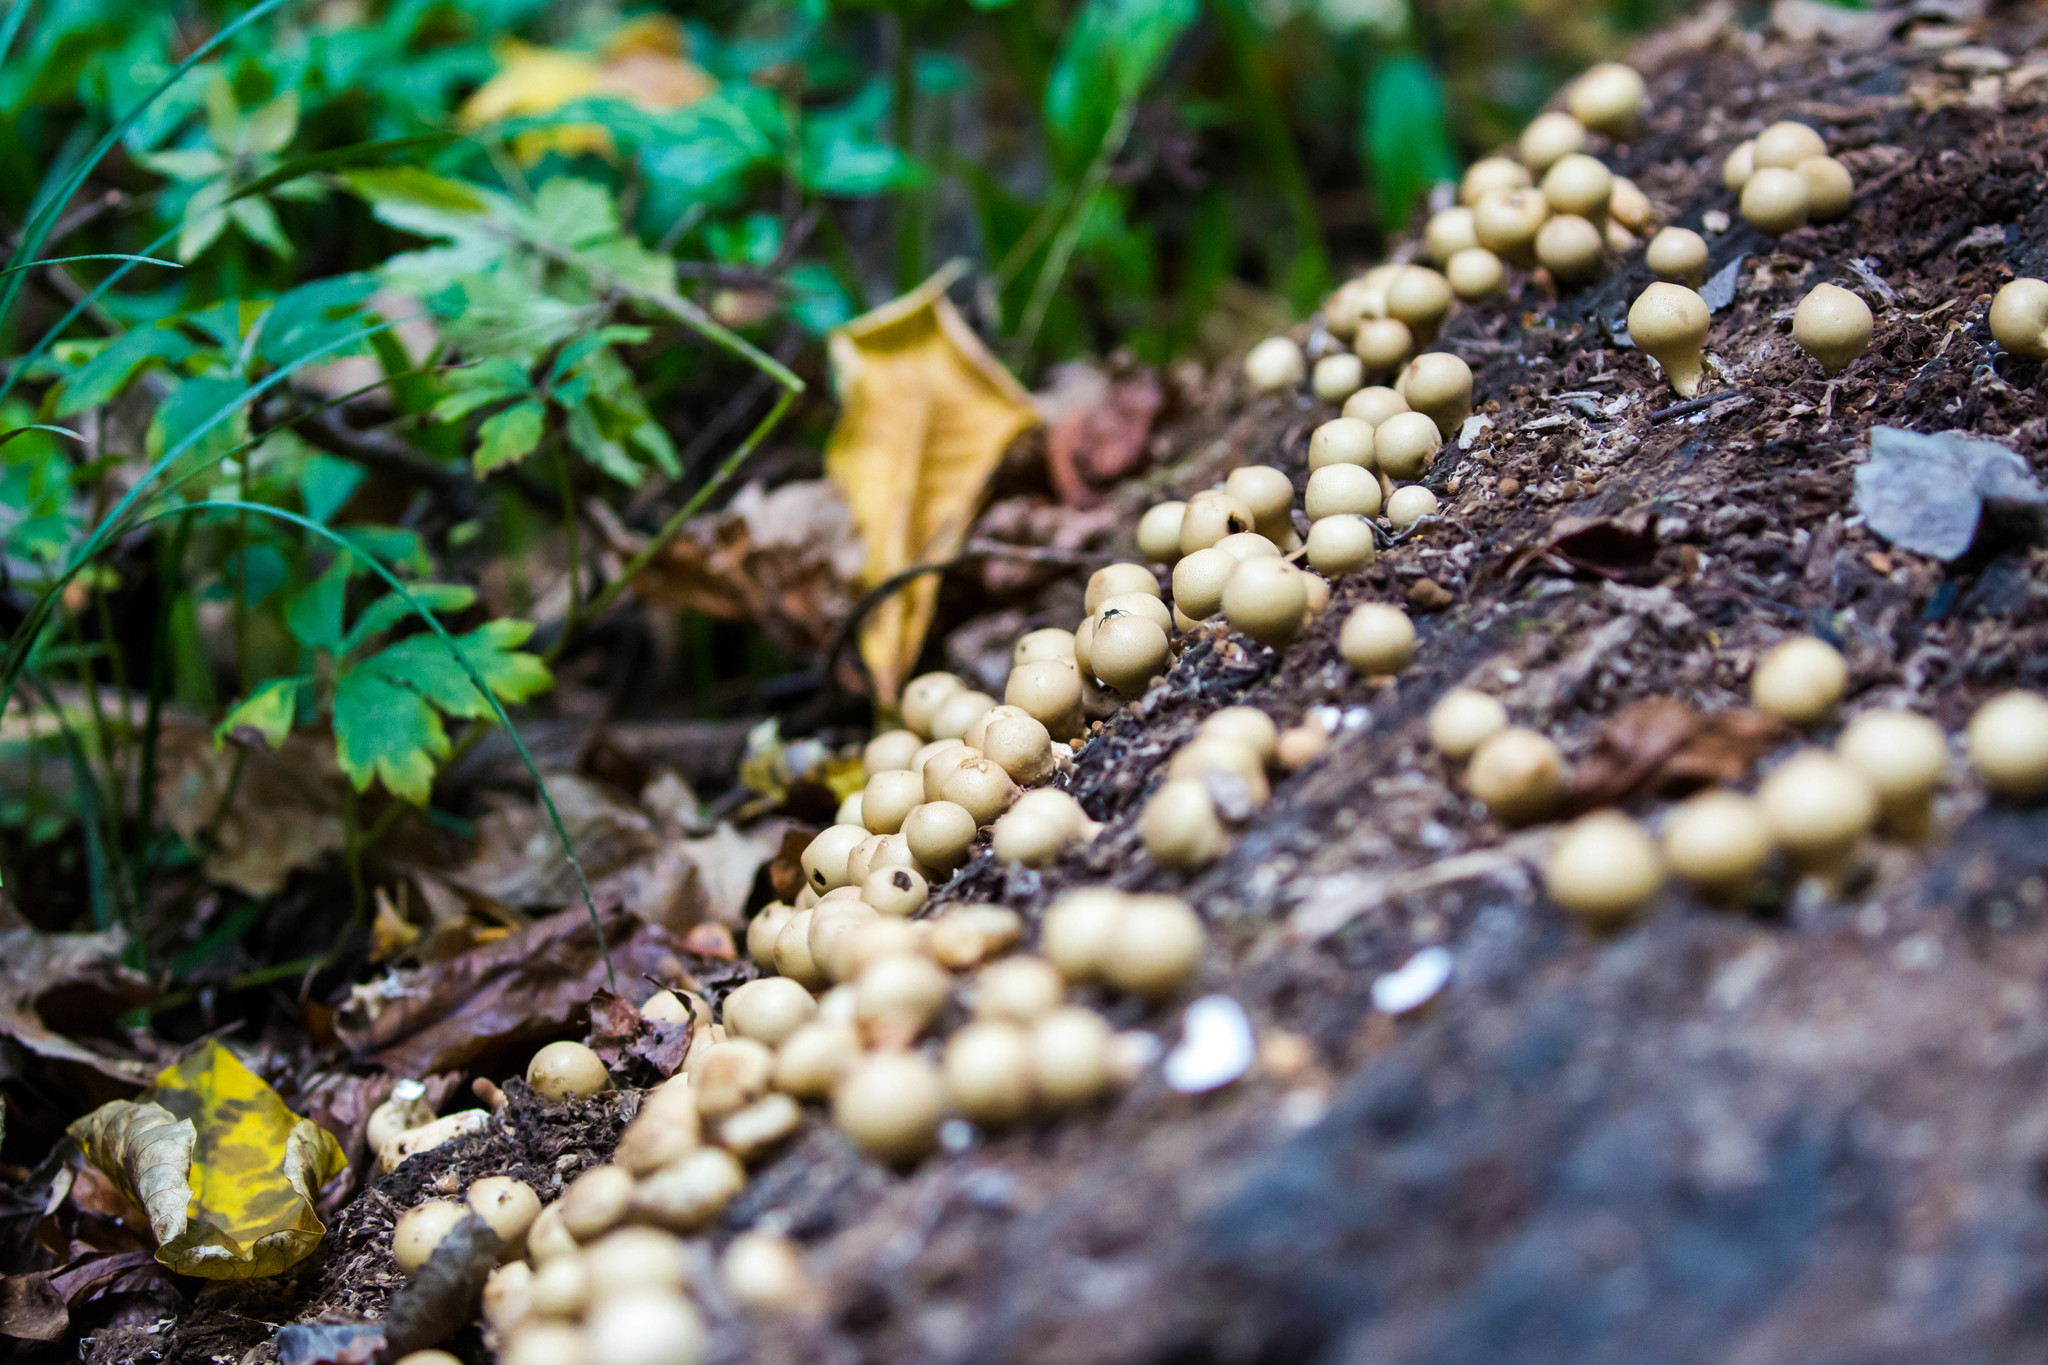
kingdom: Fungi
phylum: Basidiomycota
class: Agaricomycetes
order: Agaricales
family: Lycoperdaceae
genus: Apioperdon
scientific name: Apioperdon pyriforme
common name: Pear-shaped puffball
